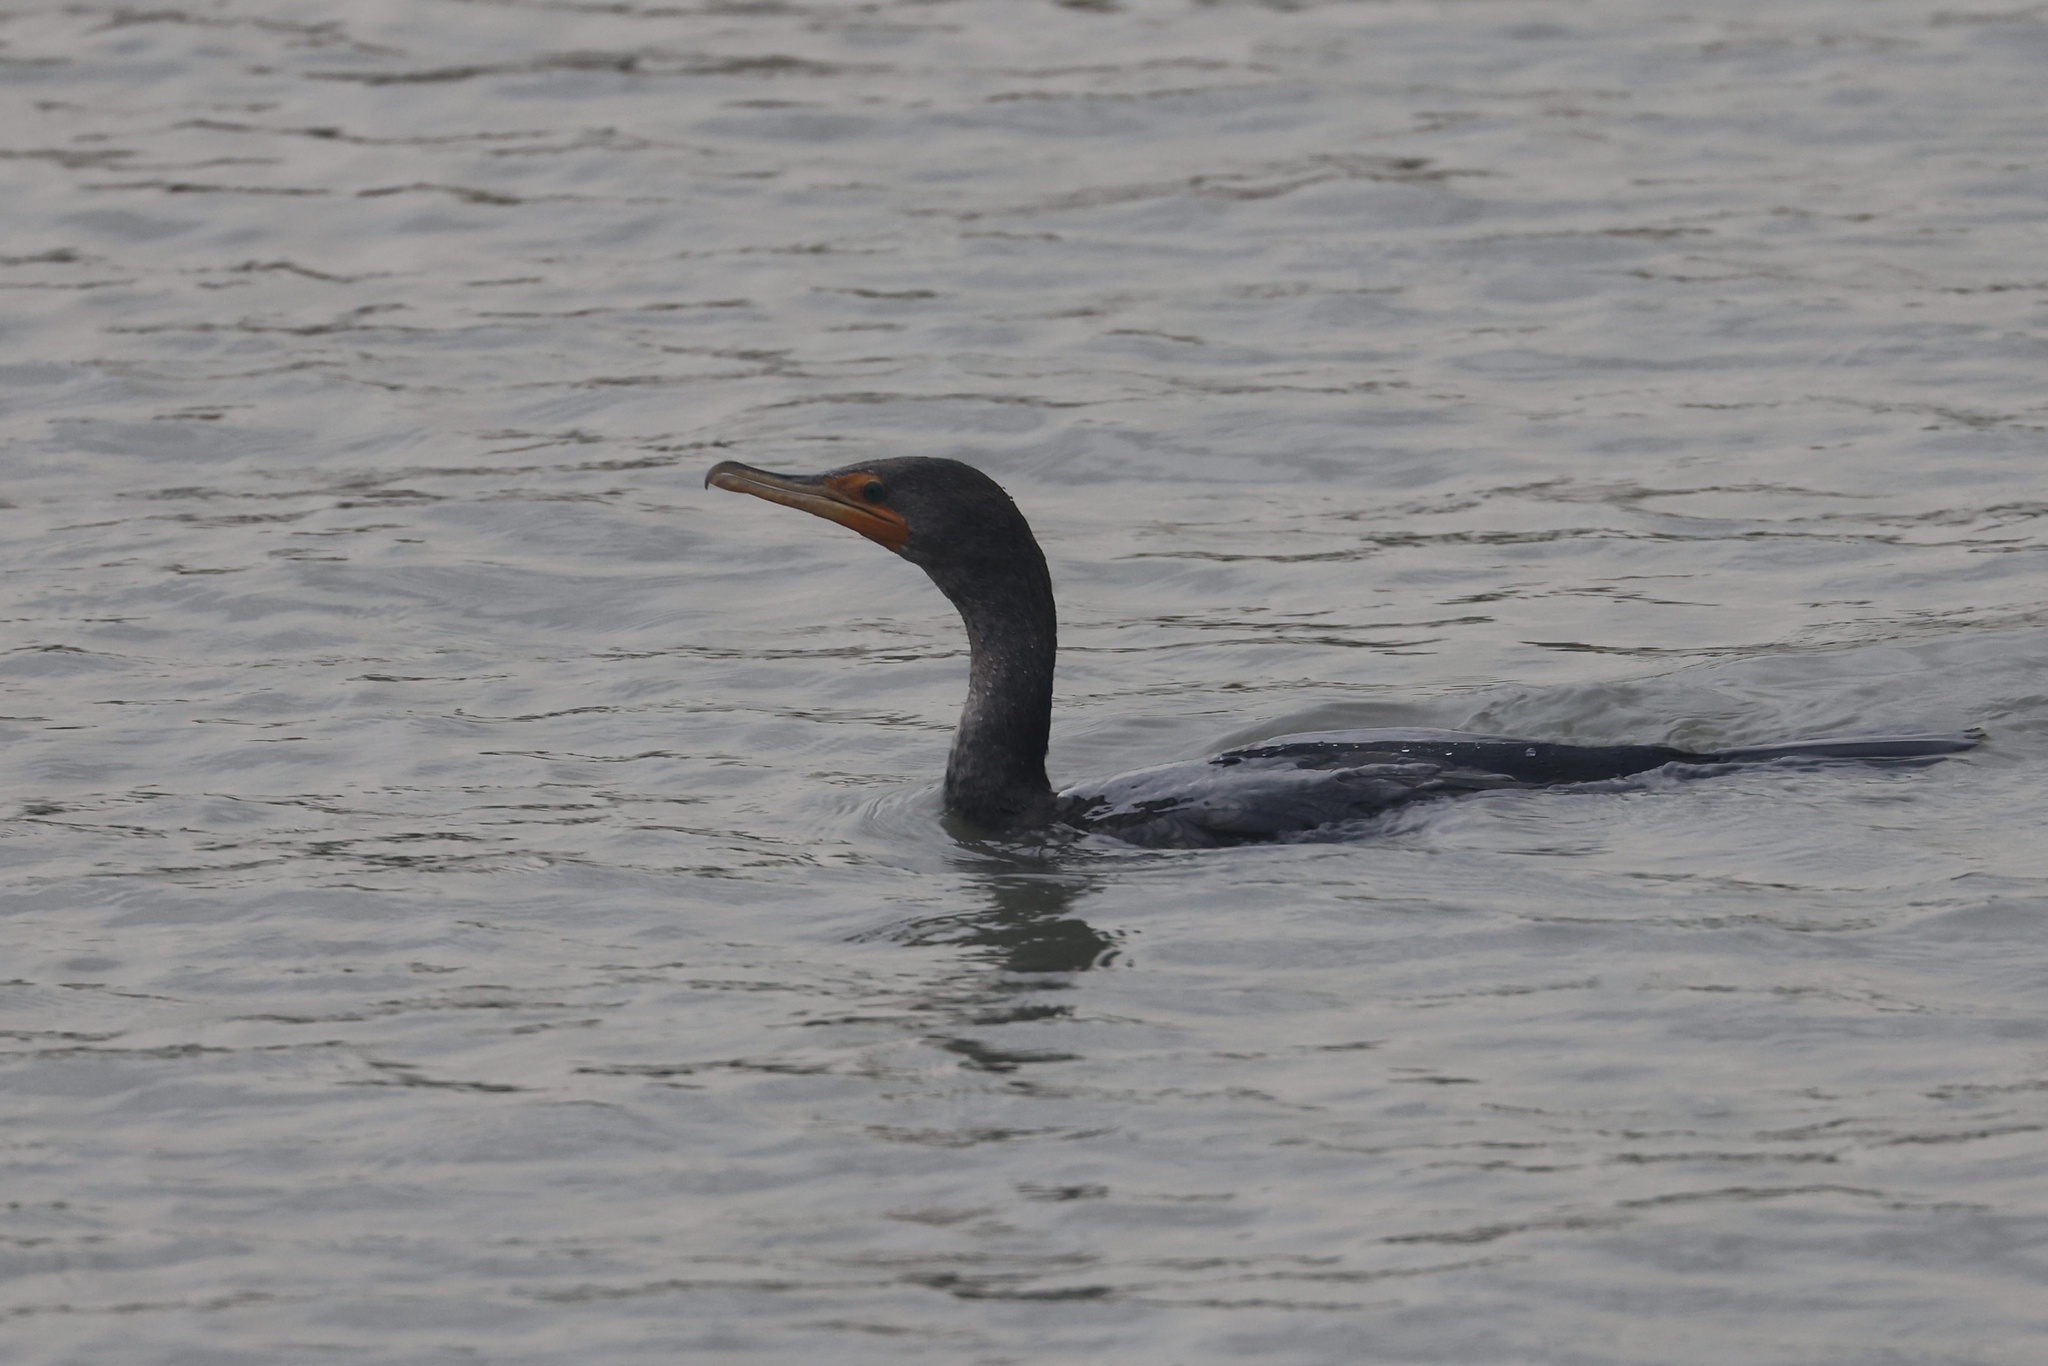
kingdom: Animalia
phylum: Chordata
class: Aves
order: Suliformes
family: Phalacrocoracidae
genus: Phalacrocorax
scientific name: Phalacrocorax auritus
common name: Double-crested cormorant
